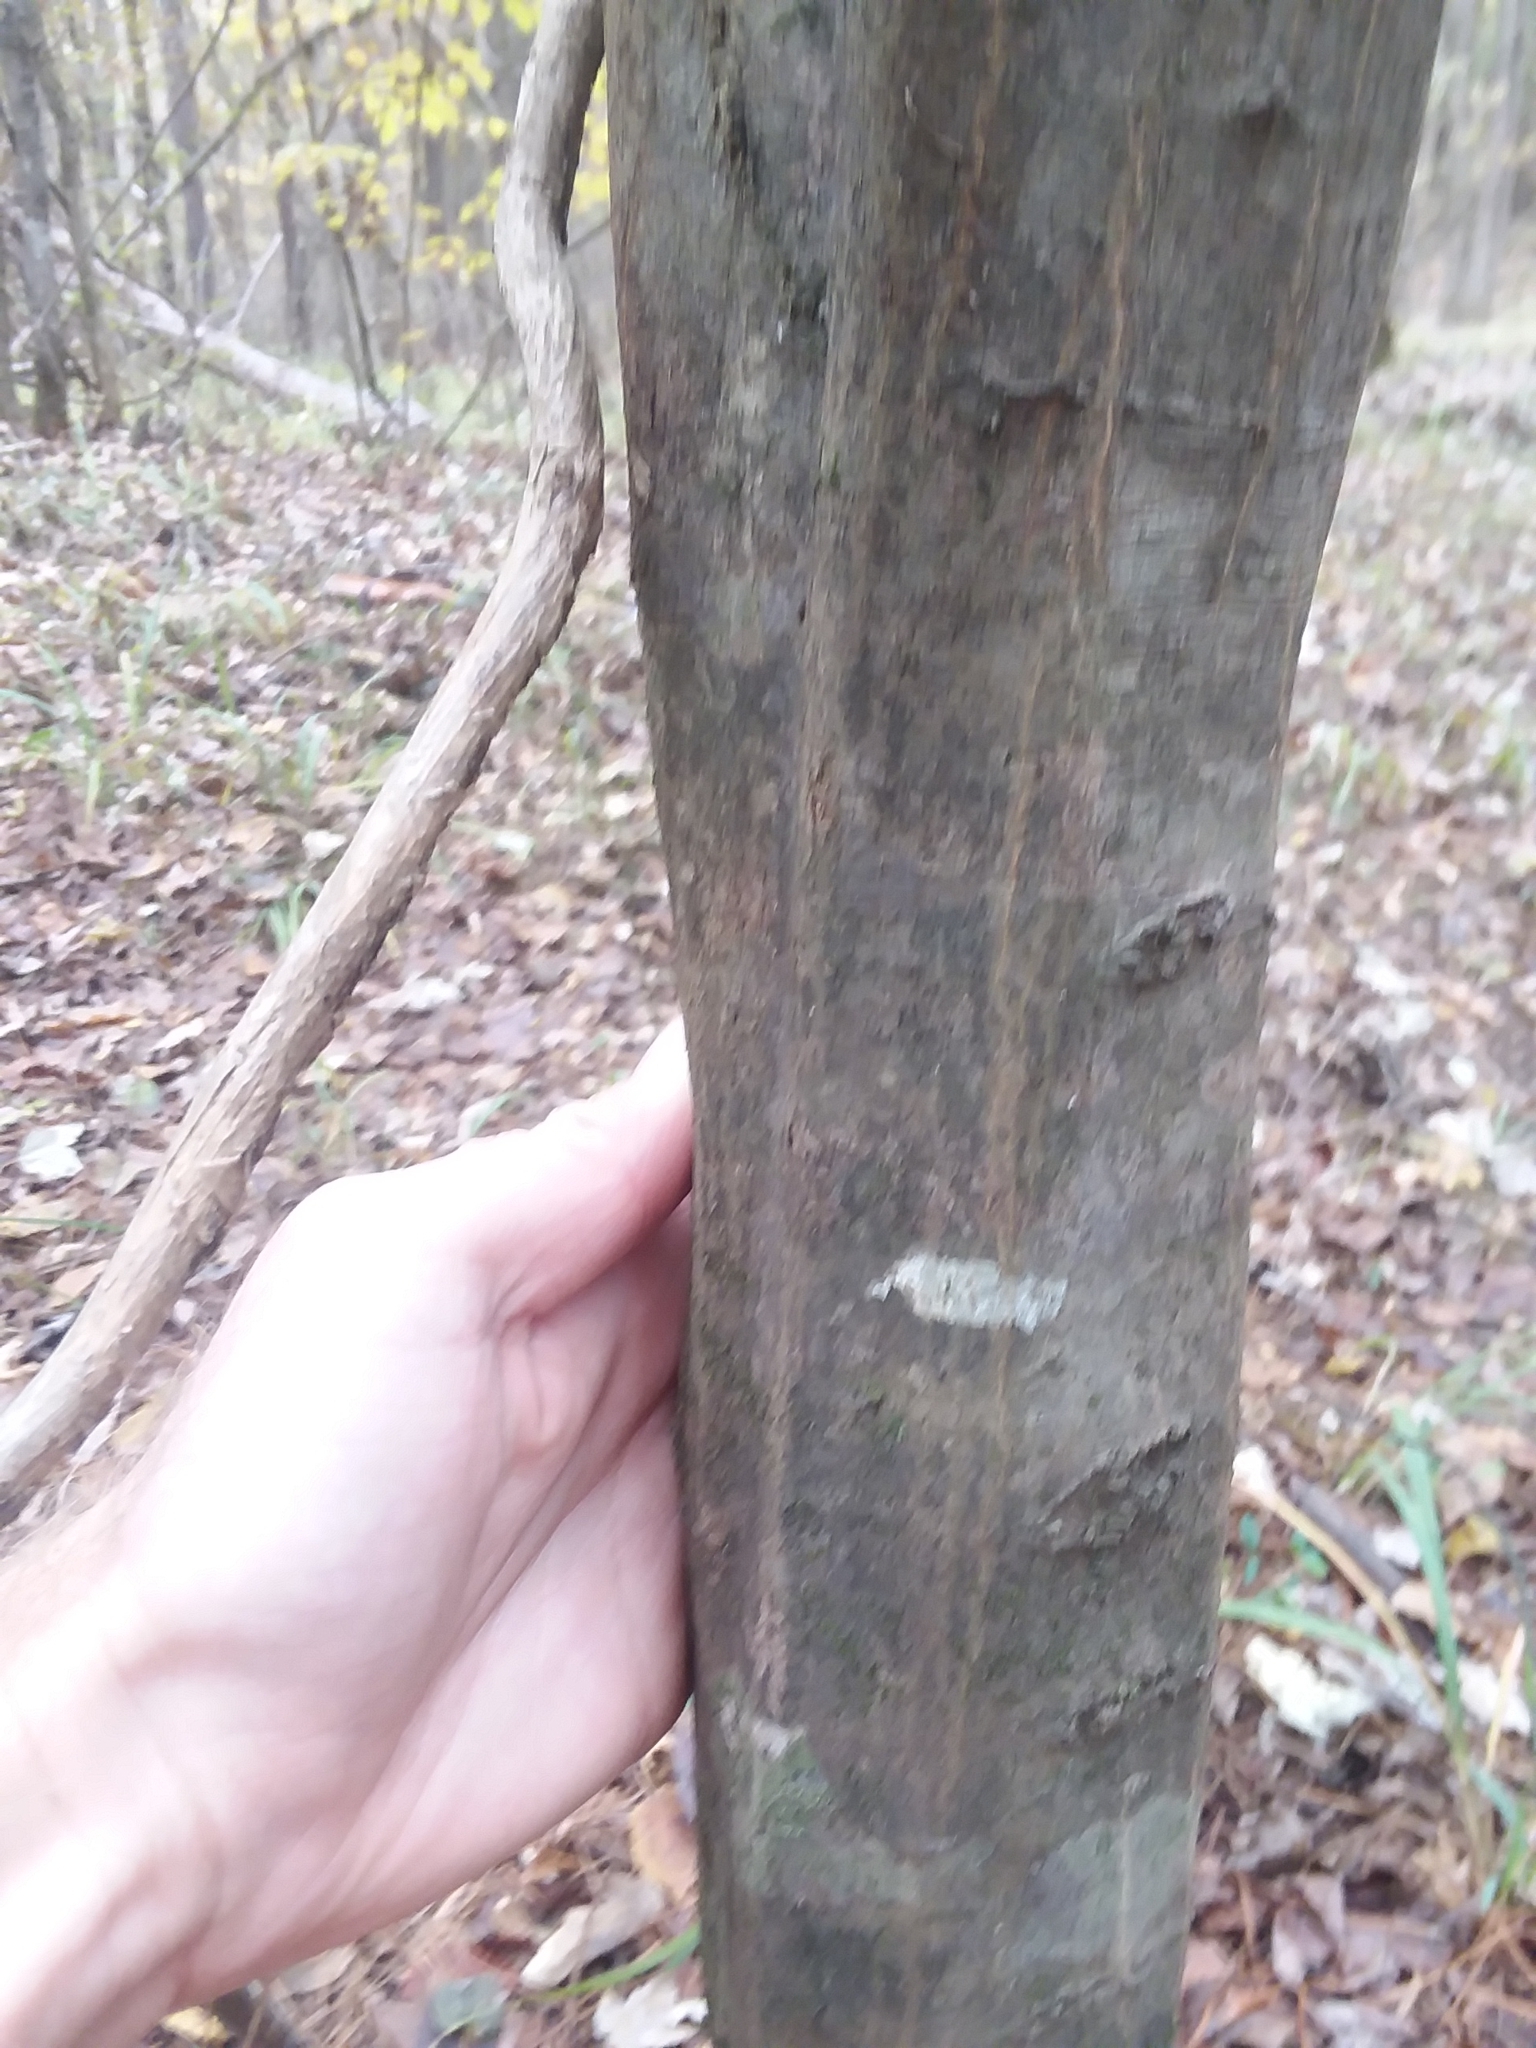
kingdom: Plantae
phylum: Tracheophyta
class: Magnoliopsida
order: Fagales
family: Betulaceae
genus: Carpinus
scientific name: Carpinus caroliniana
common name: American hornbeam
